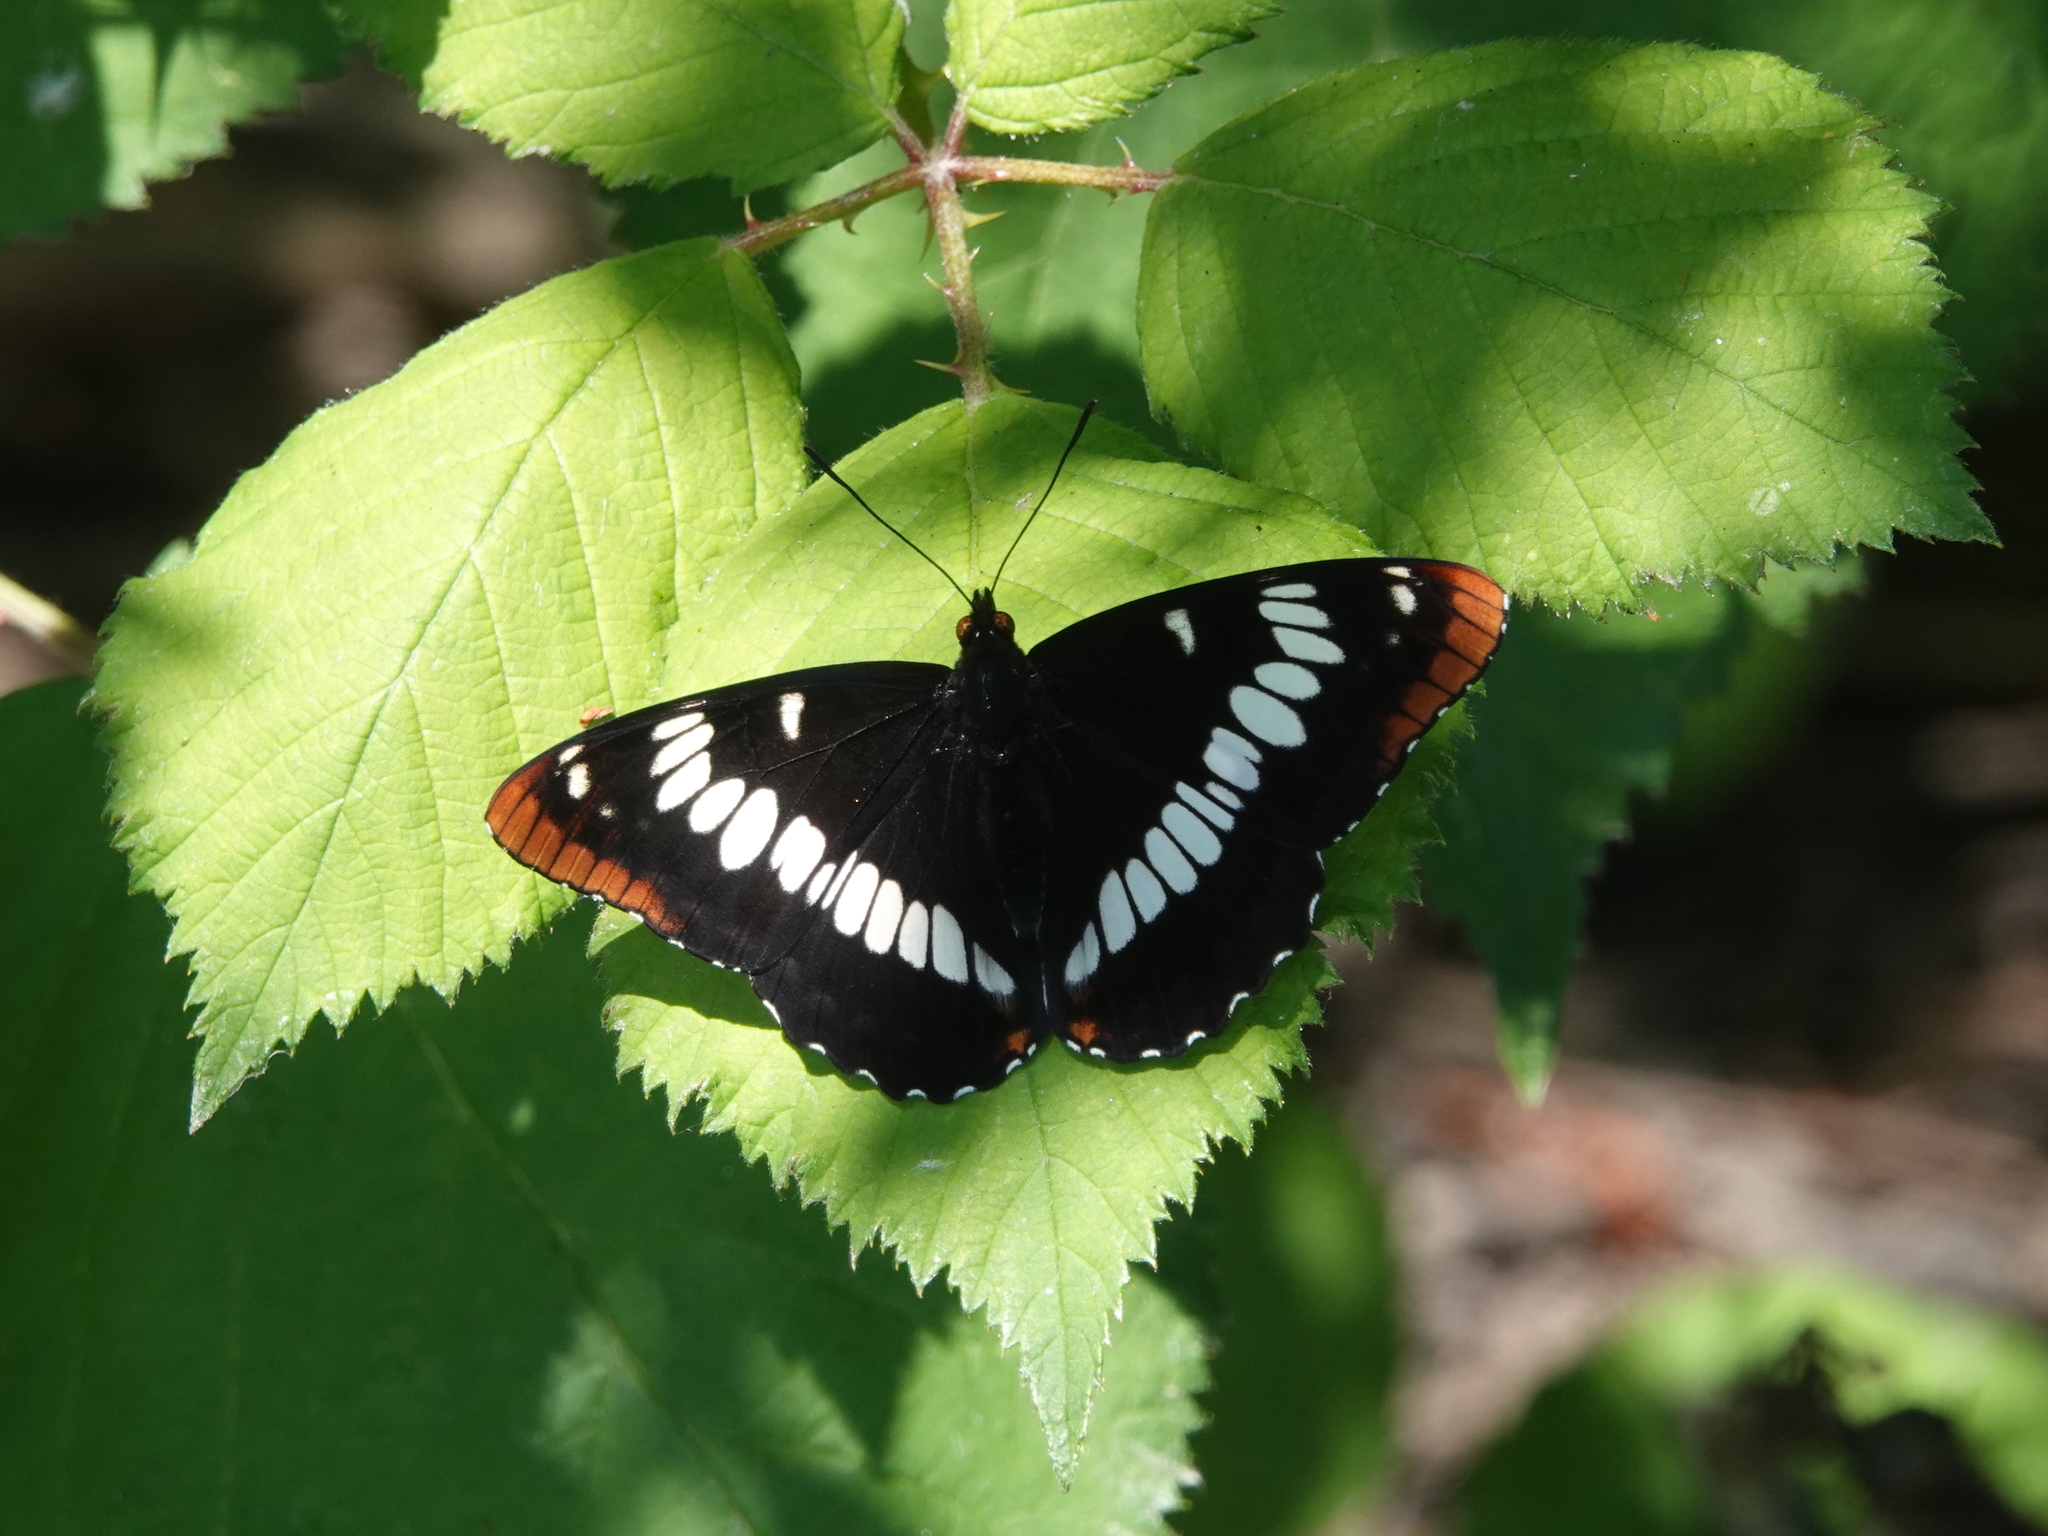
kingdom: Animalia
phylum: Arthropoda
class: Insecta
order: Lepidoptera
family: Nymphalidae
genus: Limenitis
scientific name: Limenitis lorquini
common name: Lorquin's admiral
